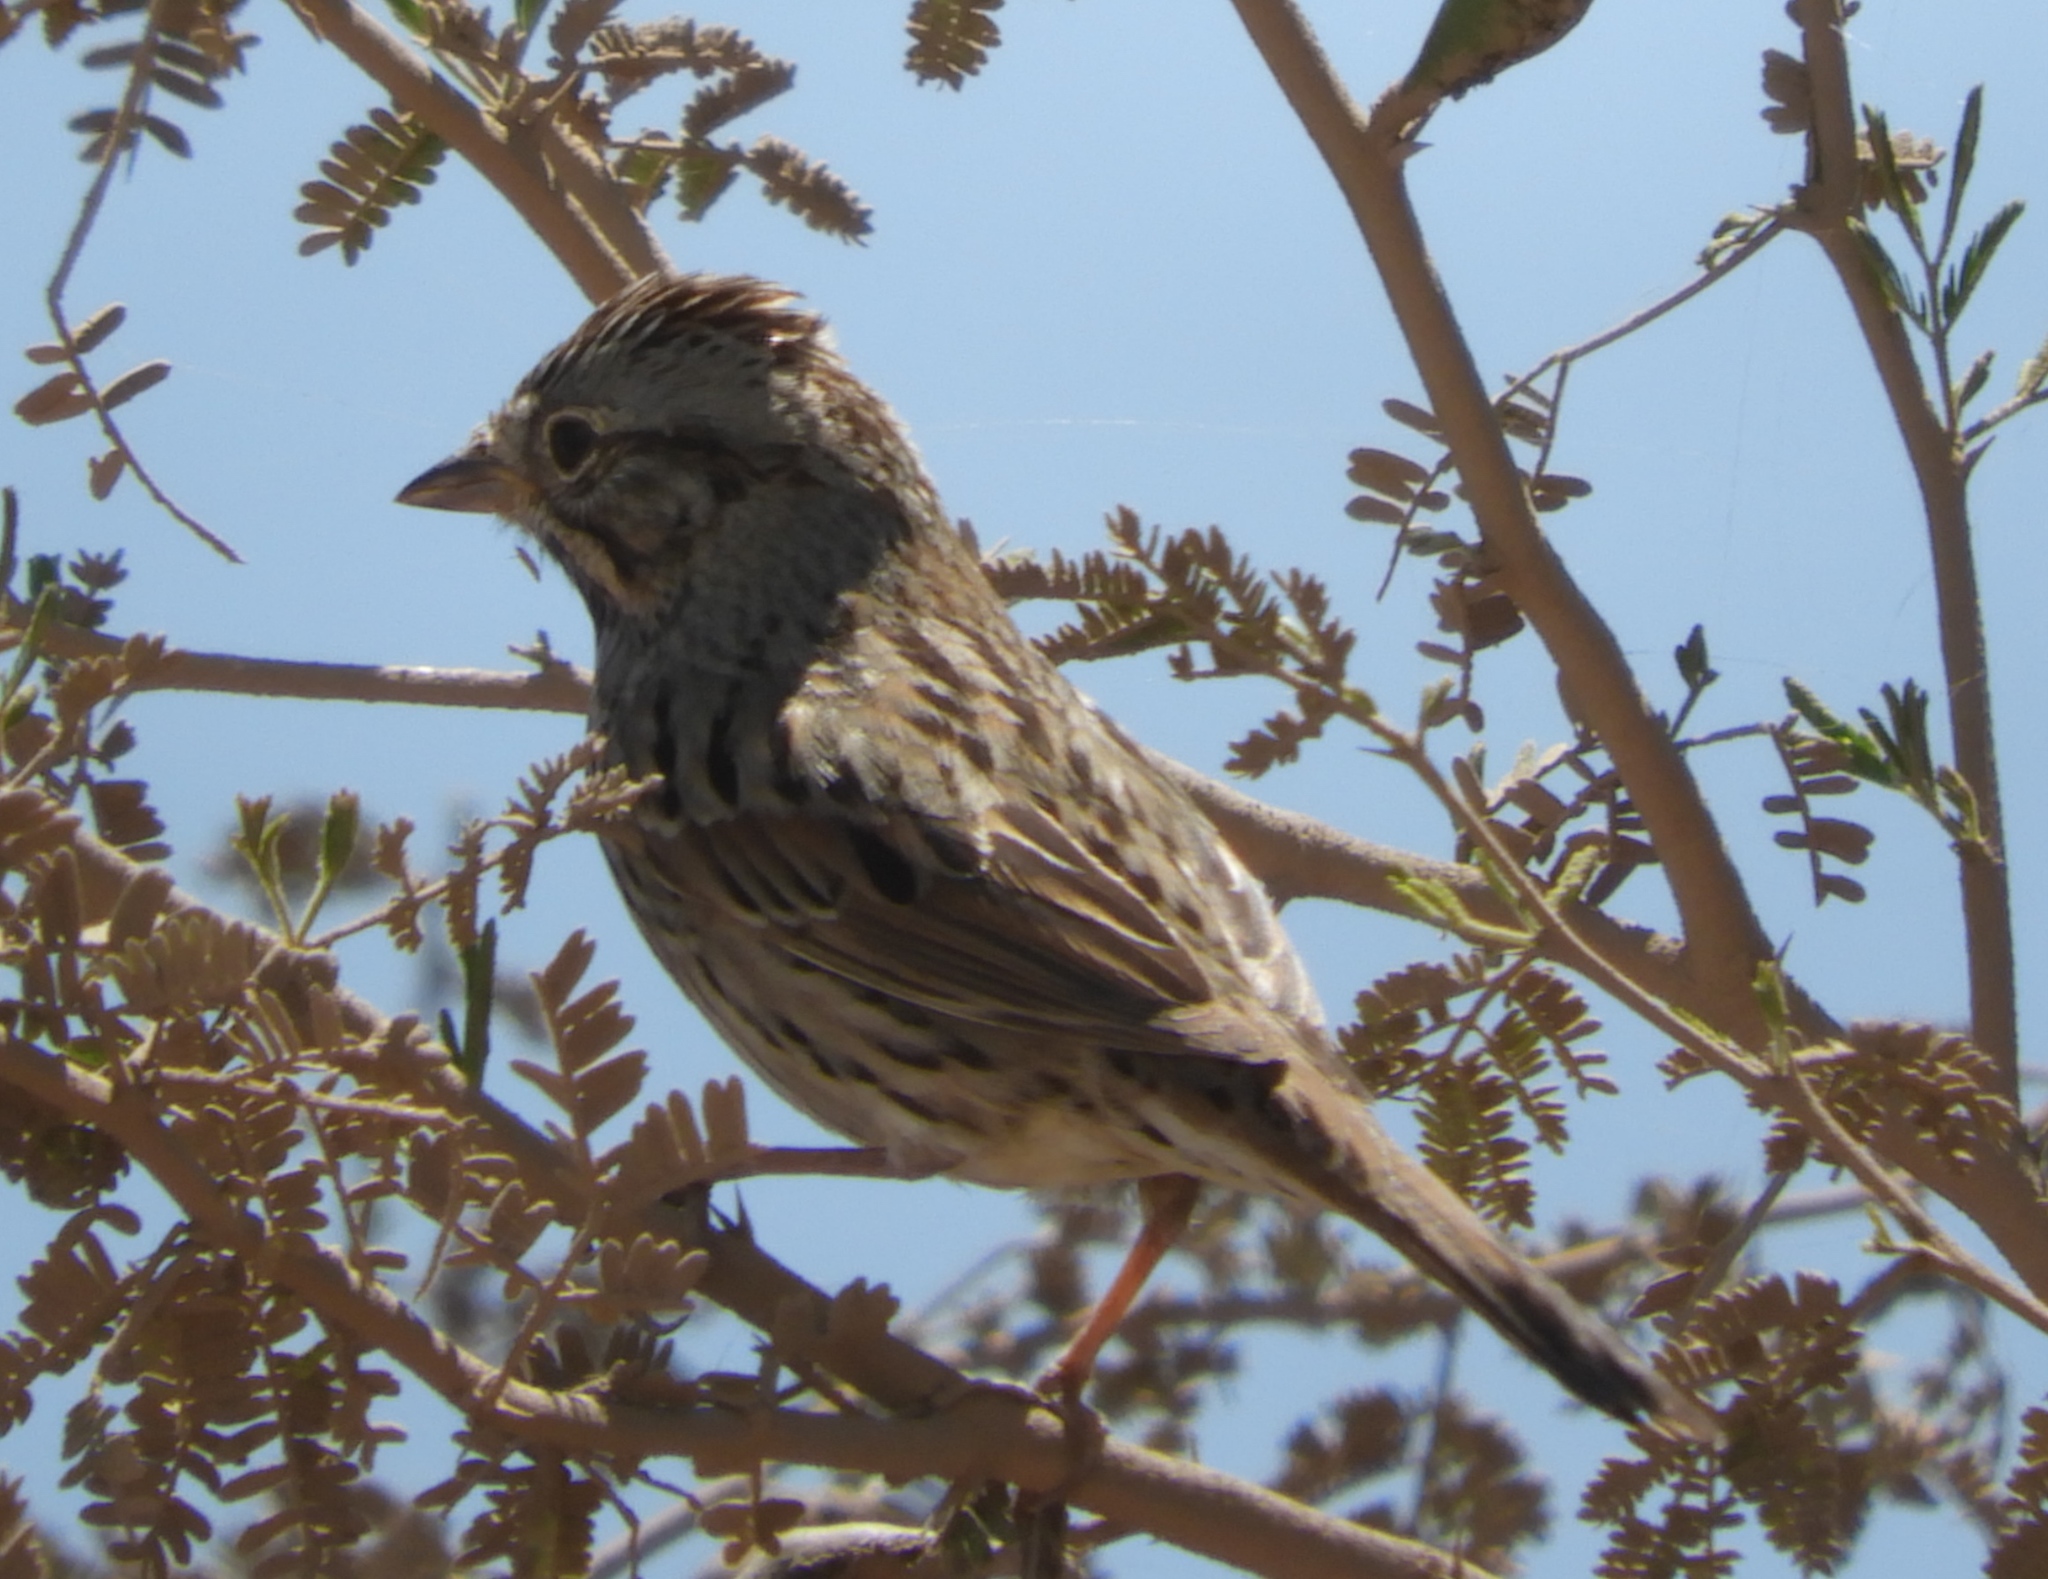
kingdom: Animalia
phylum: Chordata
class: Aves
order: Passeriformes
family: Passerellidae
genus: Melospiza
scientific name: Melospiza lincolnii
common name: Lincoln's sparrow
